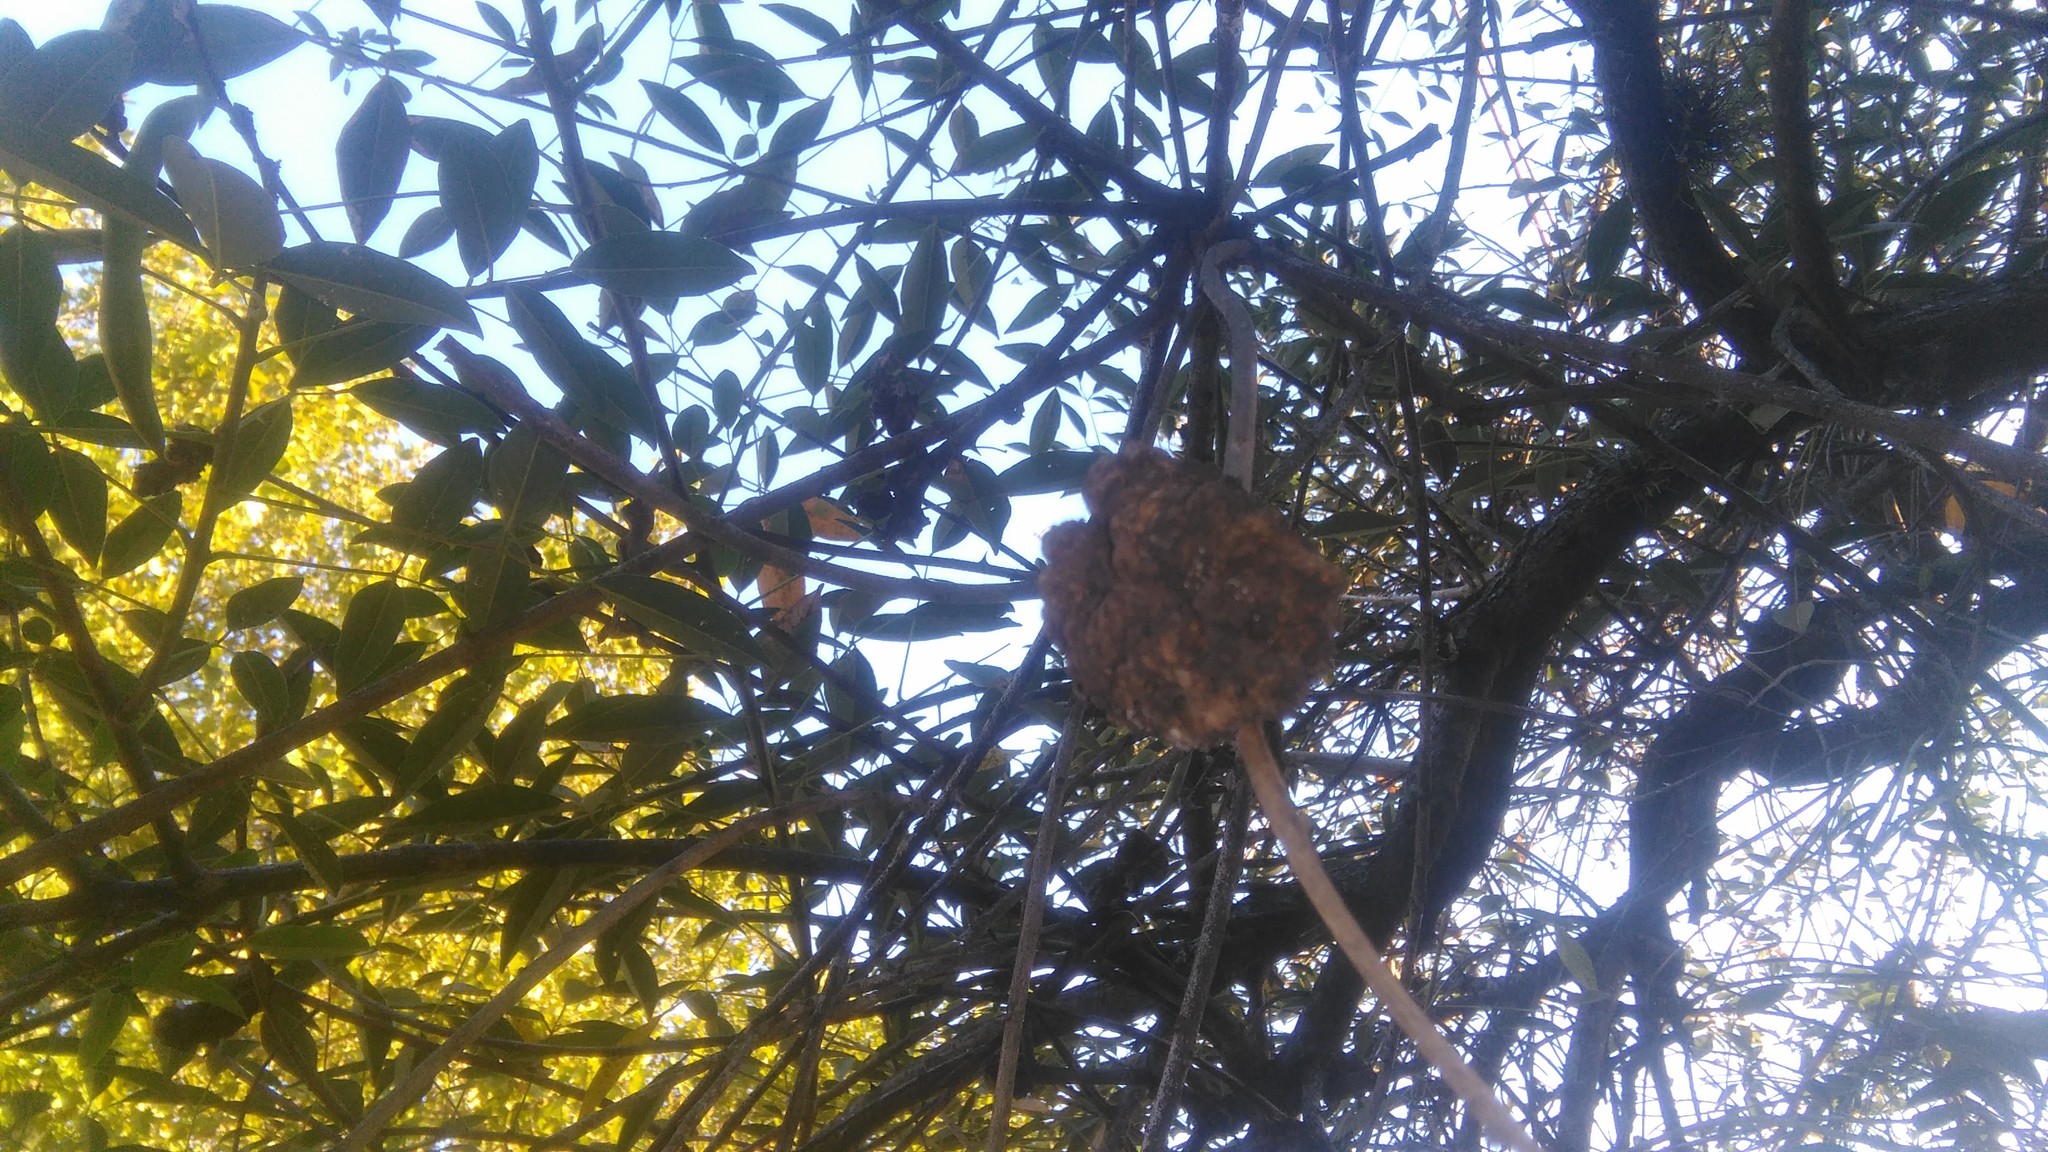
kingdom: Fungi
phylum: Basidiomycota
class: Pucciniomycetes
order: Pucciniales
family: Raveneliaceae
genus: Ravenelia
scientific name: Ravenelia platensis
